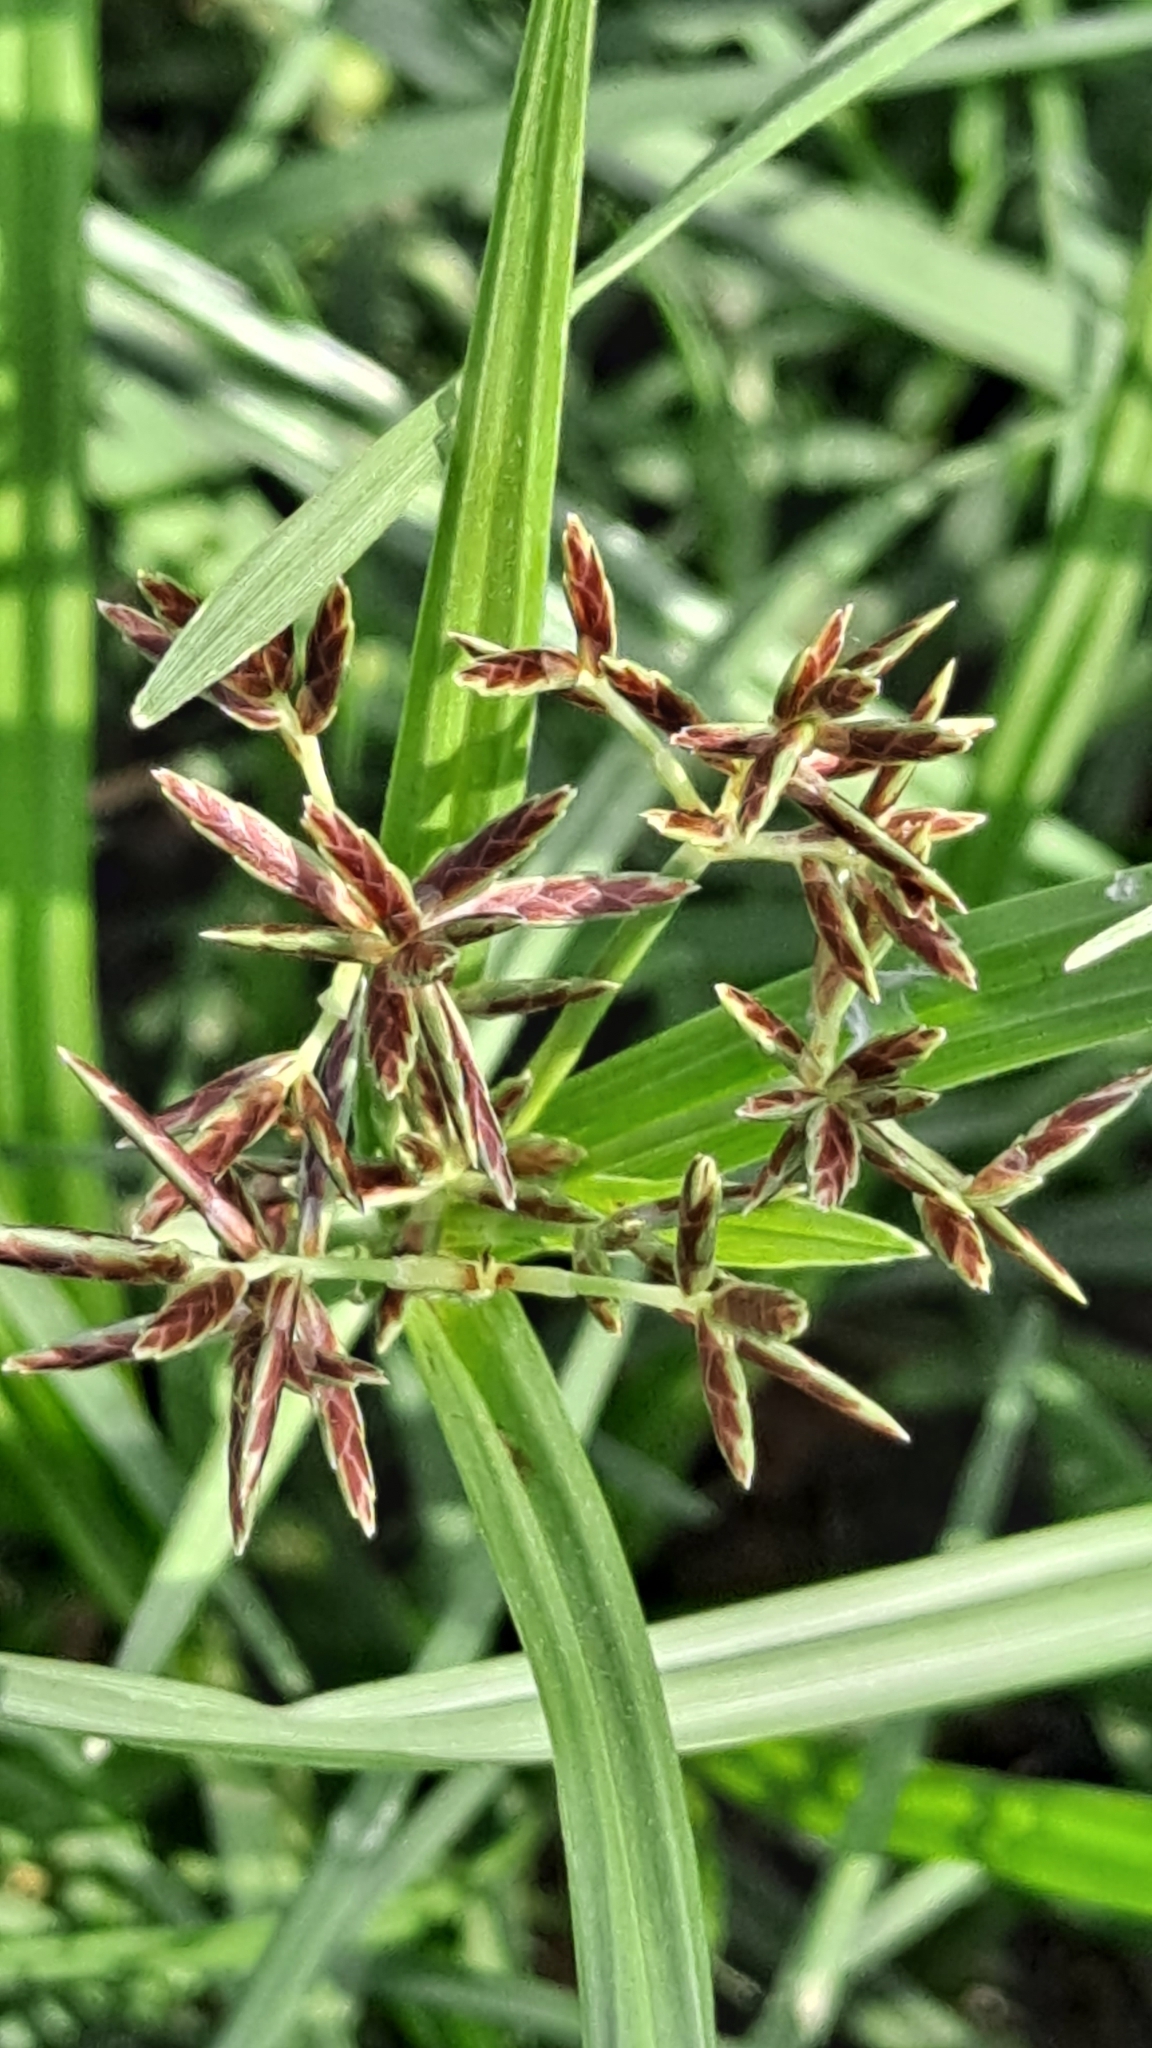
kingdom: Plantae
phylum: Tracheophyta
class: Liliopsida
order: Poales
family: Cyperaceae
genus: Cyperus
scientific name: Cyperus rotundus
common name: Nutgrass
